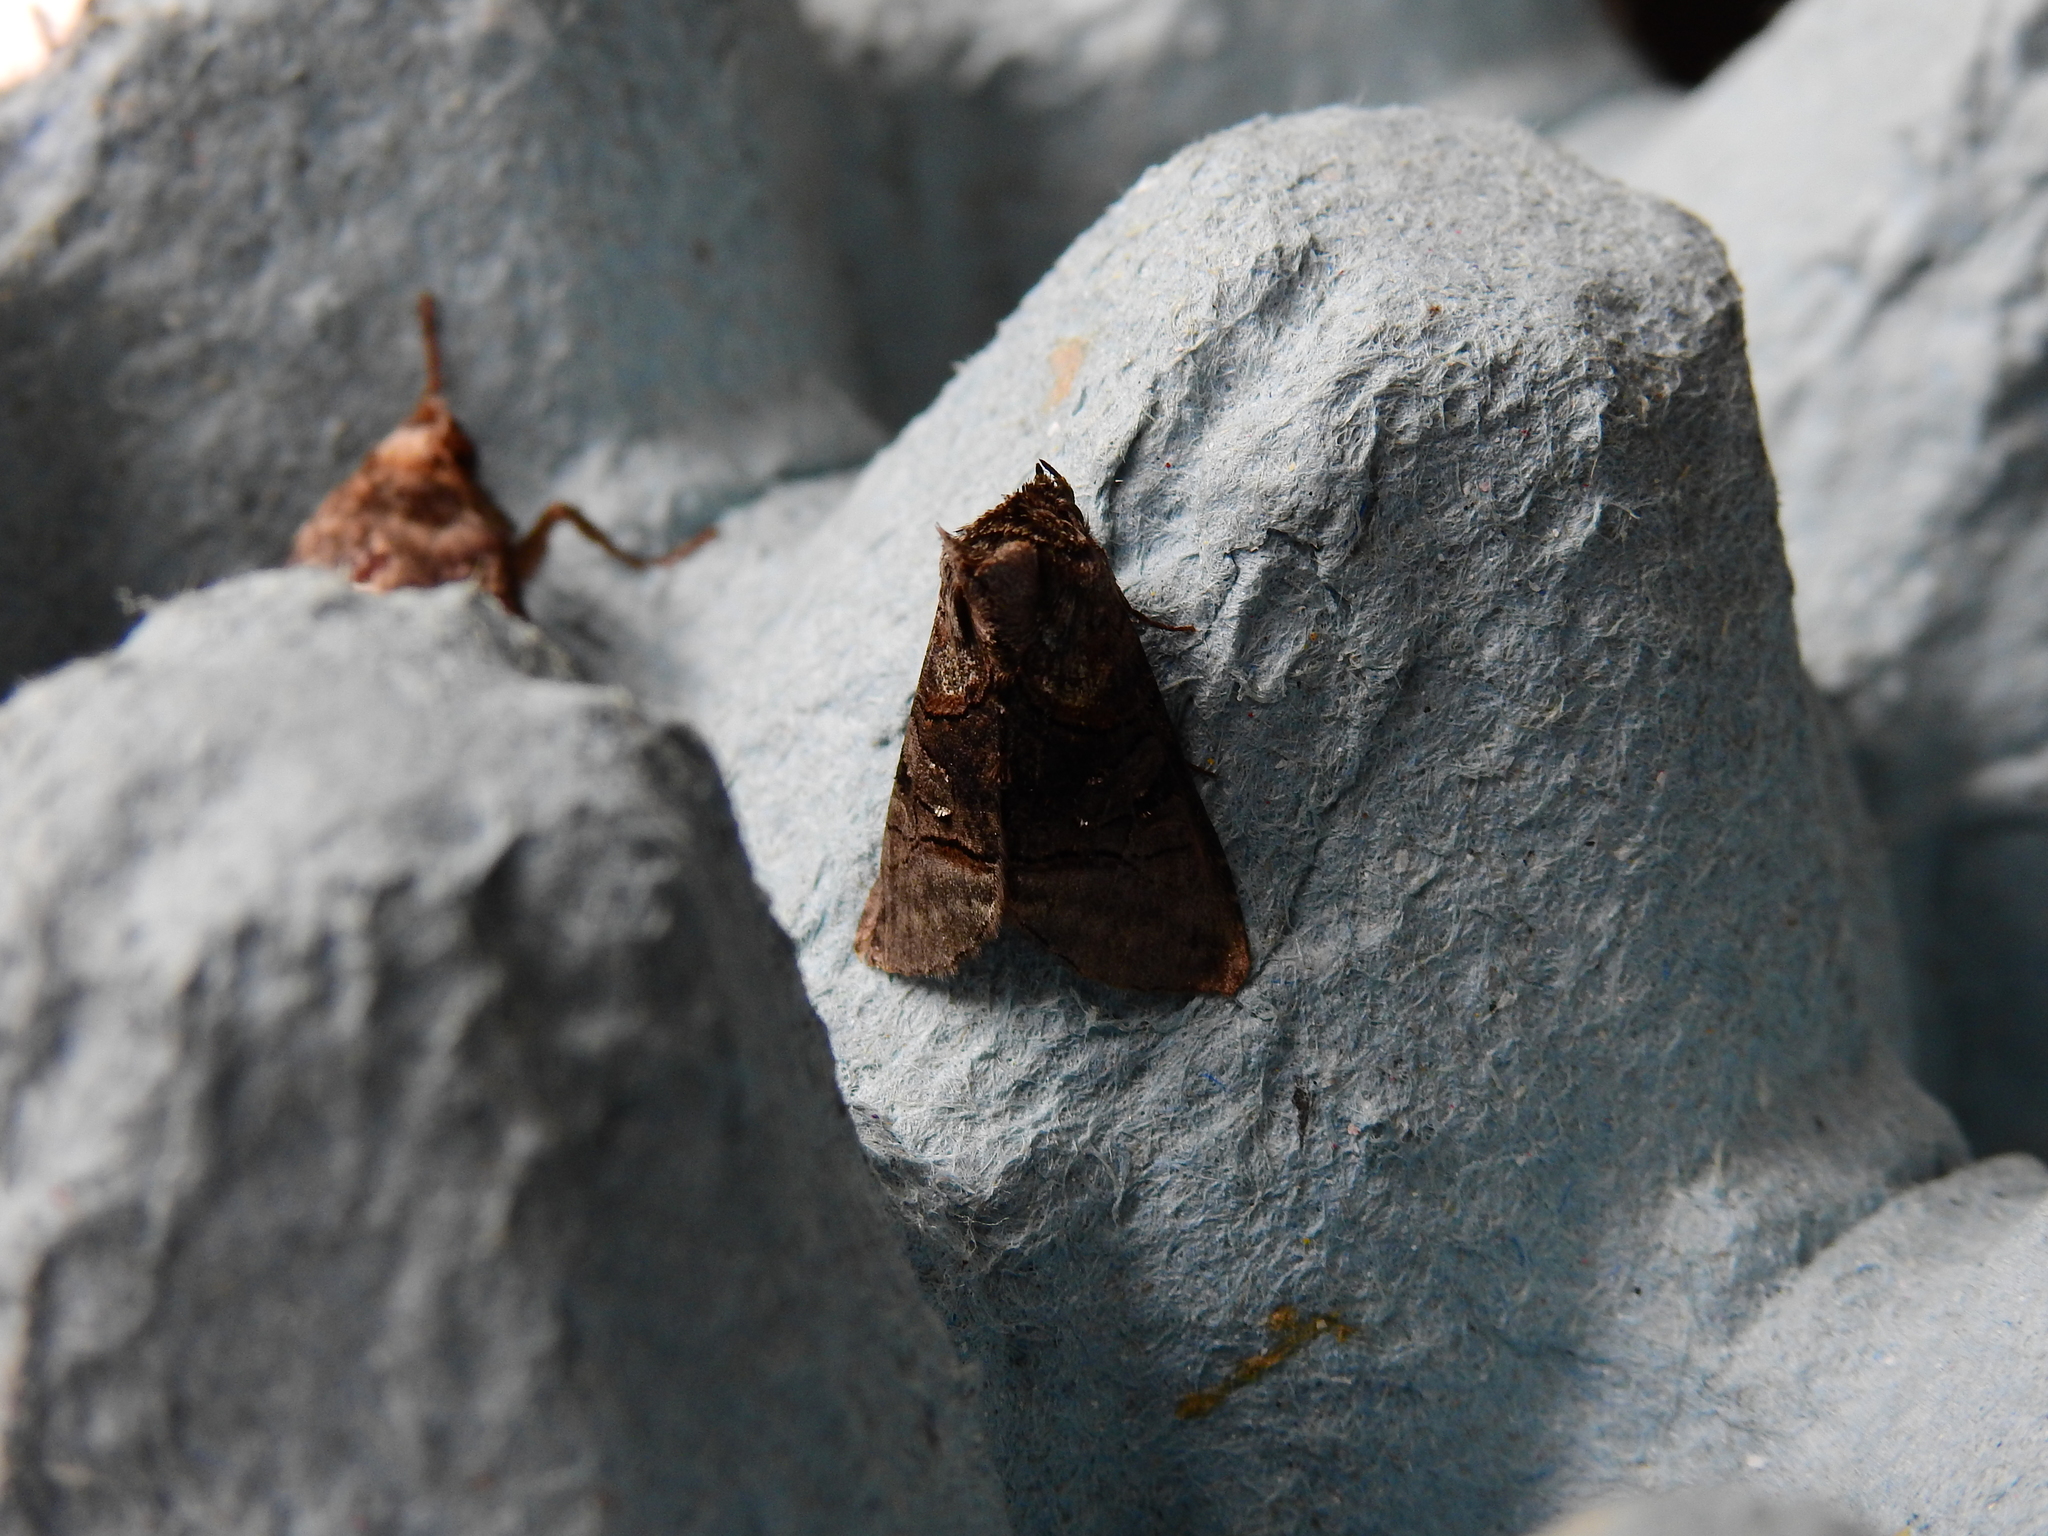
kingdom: Animalia
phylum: Arthropoda
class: Insecta
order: Lepidoptera
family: Noctuidae
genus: Abrostola
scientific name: Abrostola tripartita
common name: Spectacle
